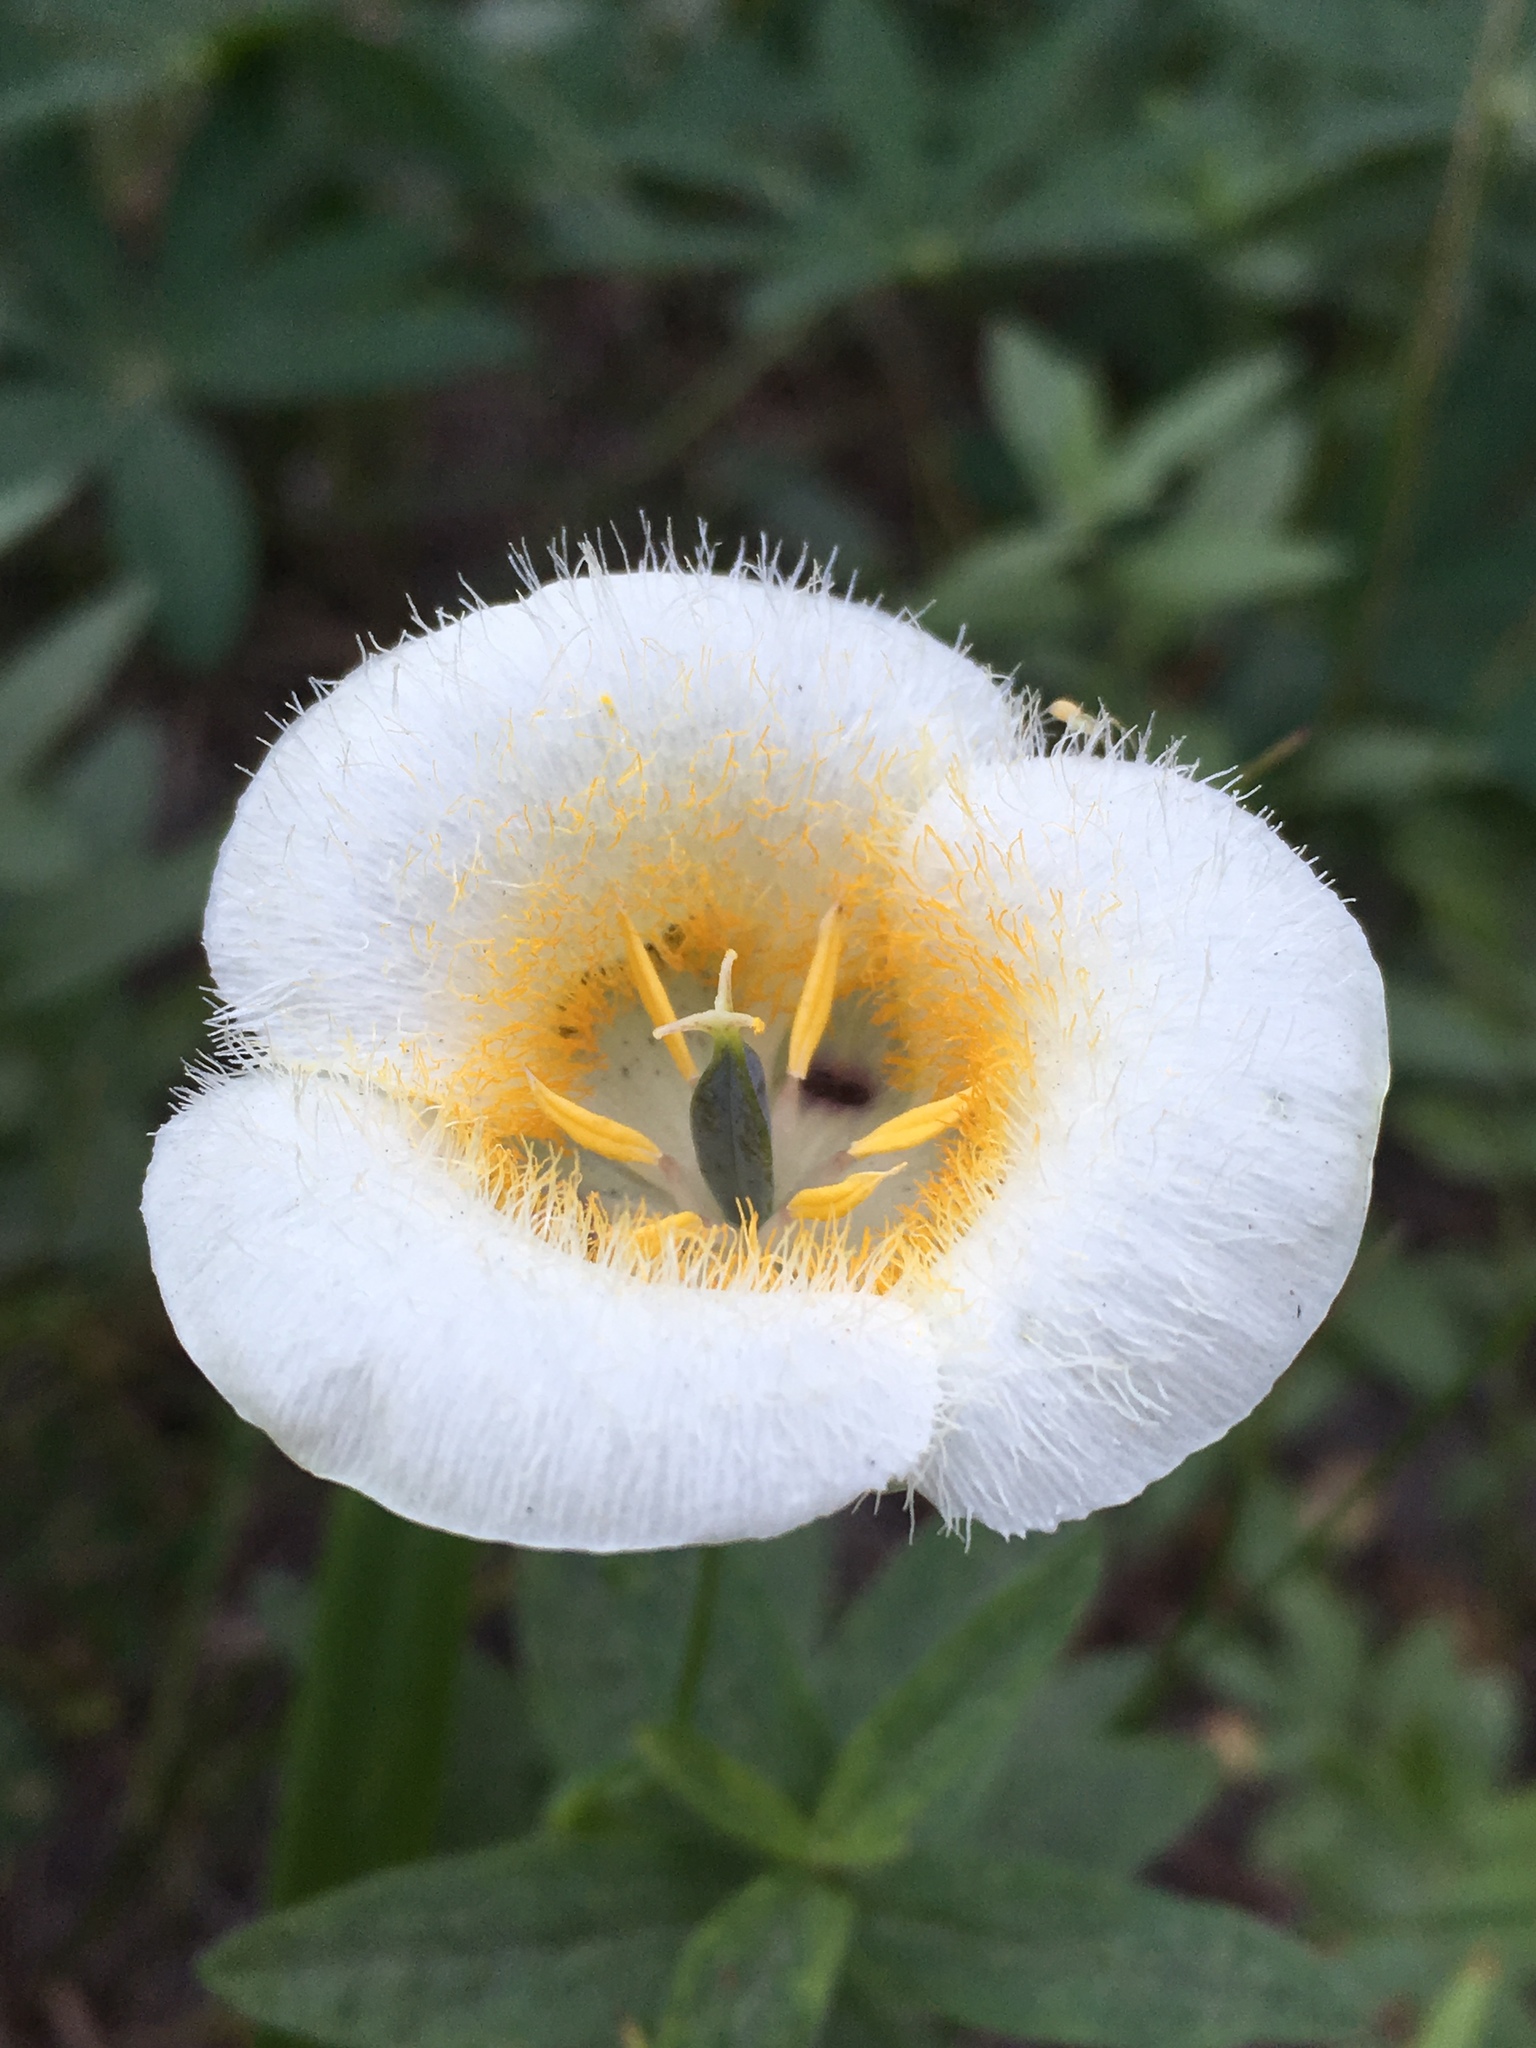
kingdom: Plantae
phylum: Tracheophyta
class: Liliopsida
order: Liliales
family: Liliaceae
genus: Calochortus
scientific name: Calochortus subalpinus
